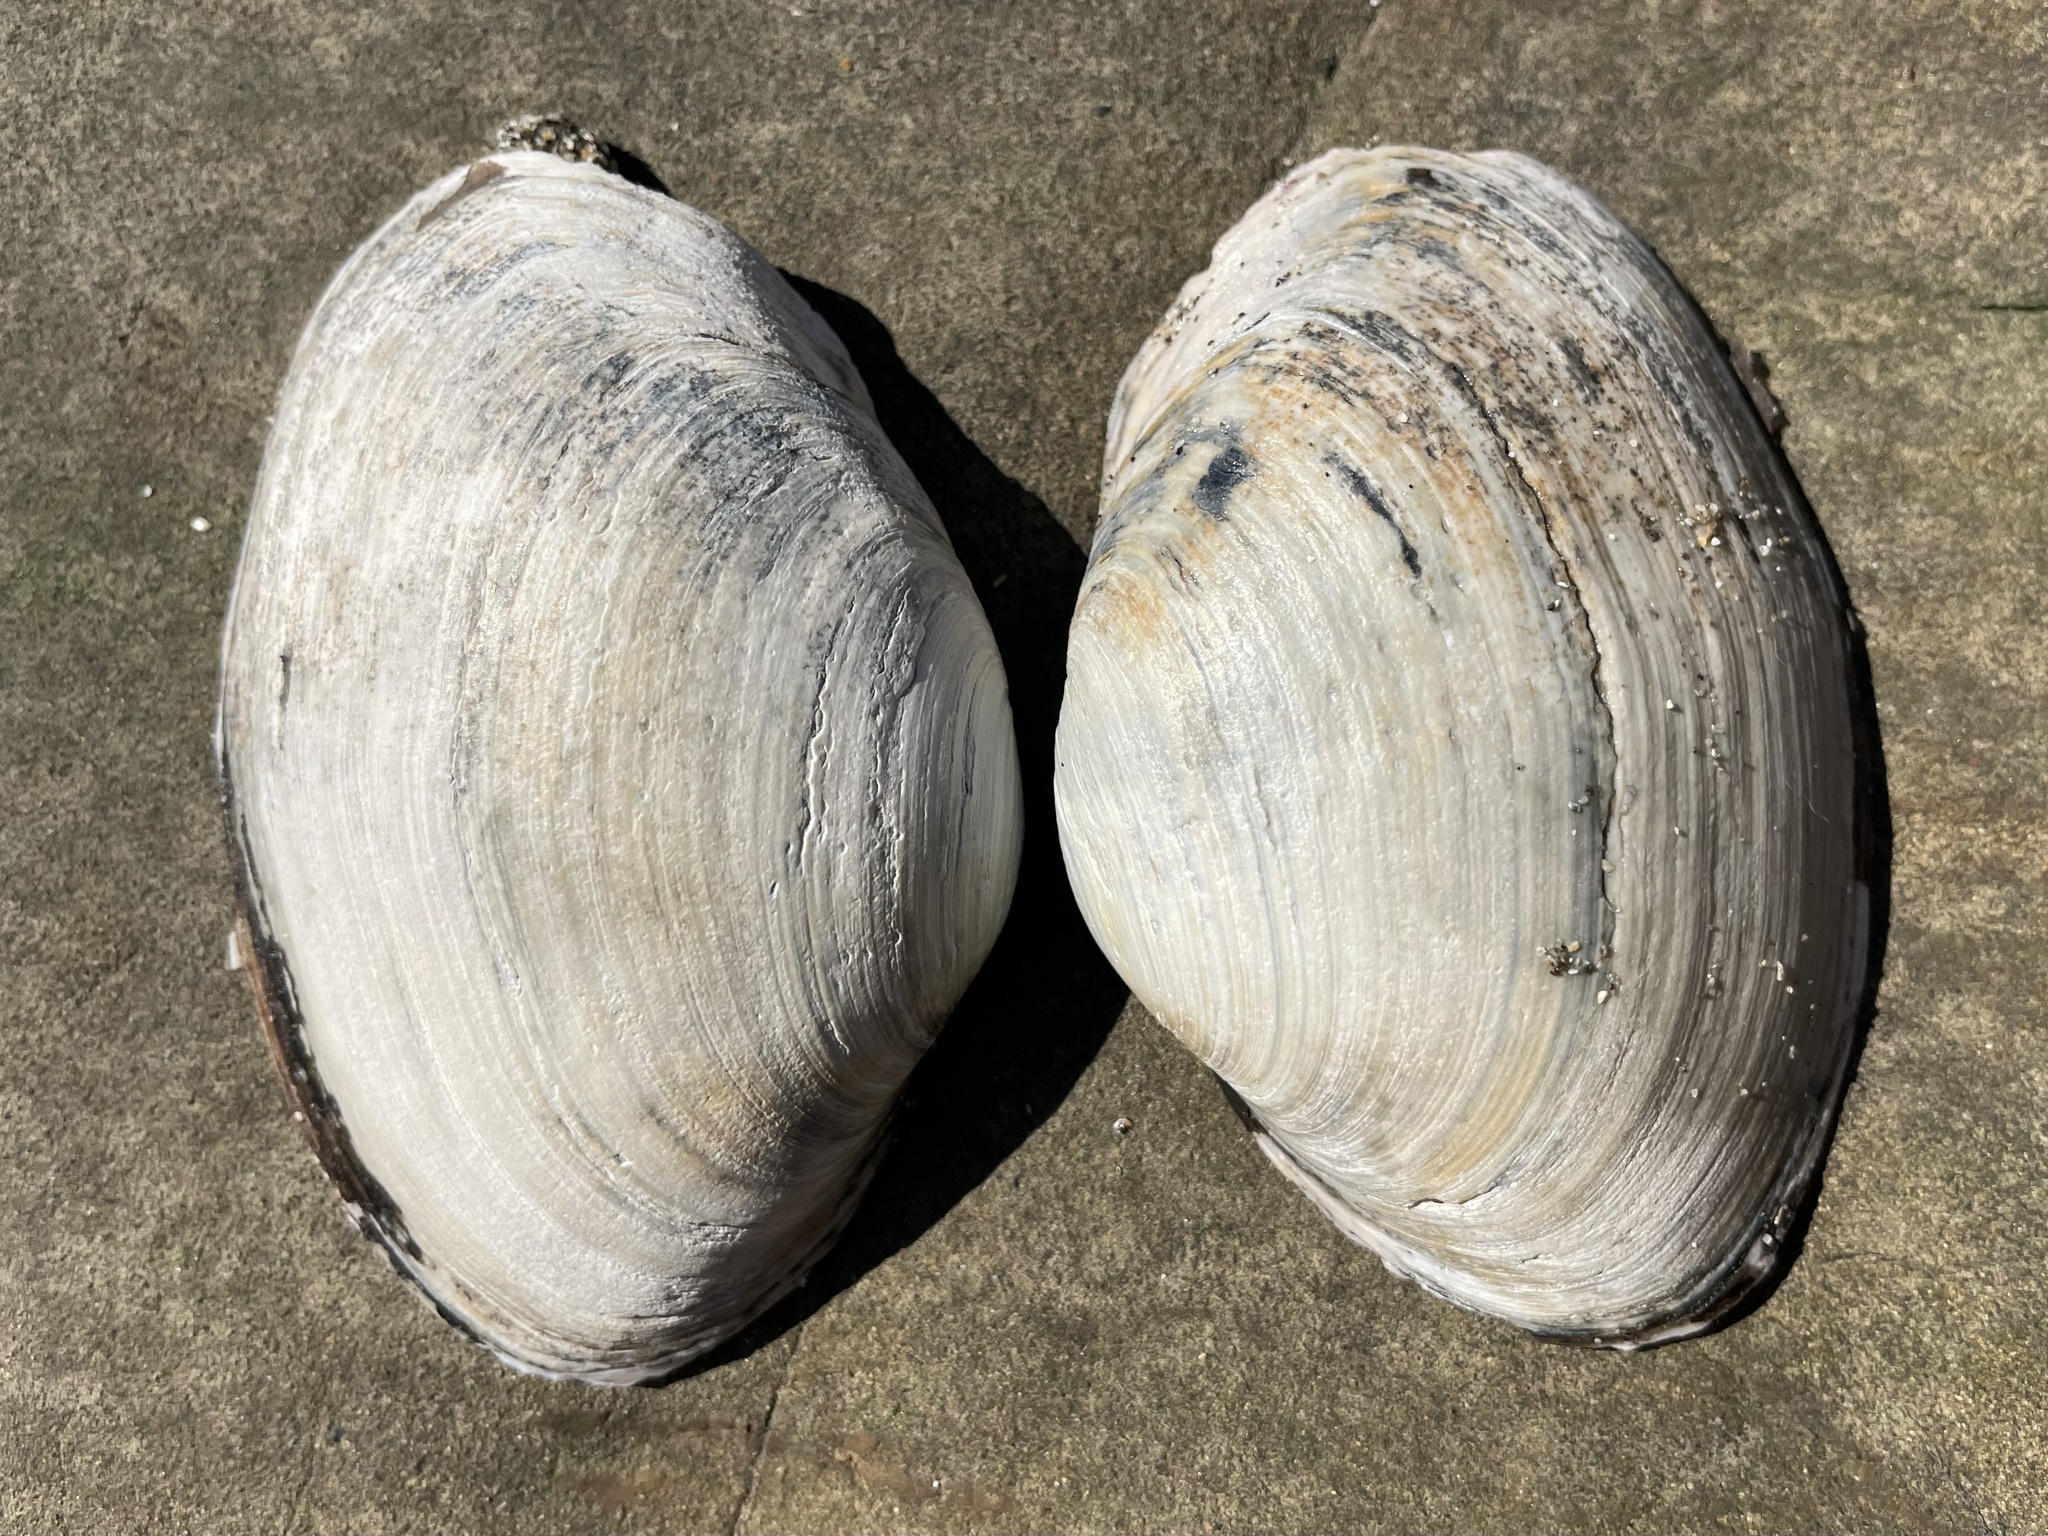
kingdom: Animalia
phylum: Mollusca
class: Bivalvia
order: Venerida
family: Mactridae
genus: Tresus
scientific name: Tresus nuttallii
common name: Pacific gaper clam
